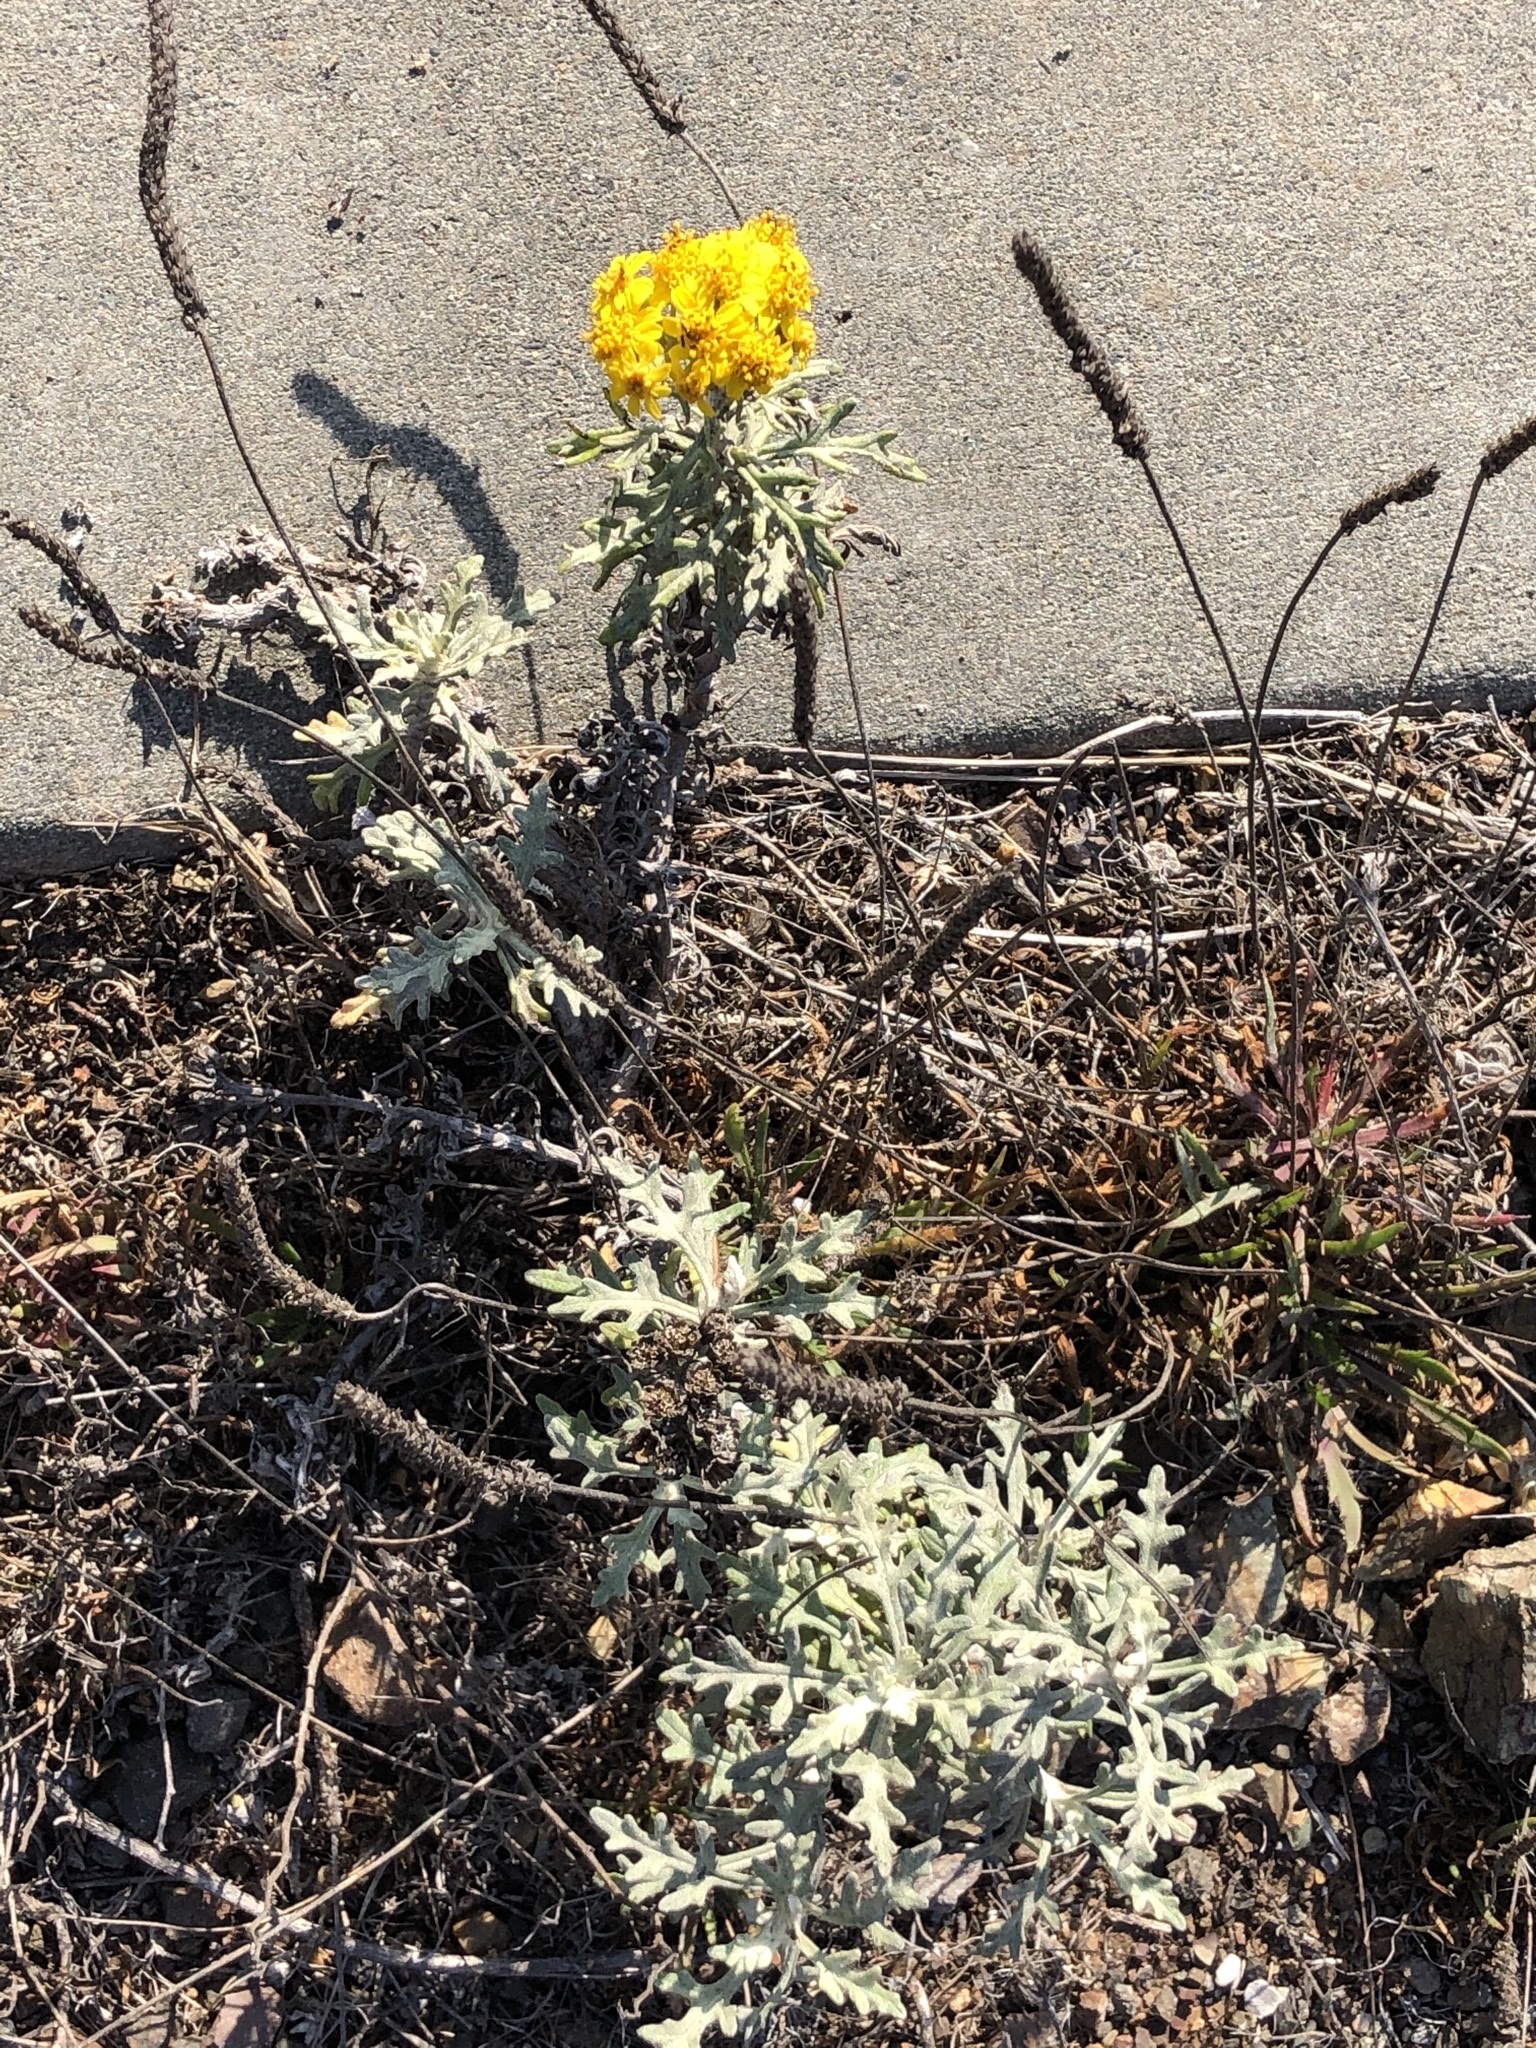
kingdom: Plantae
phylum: Tracheophyta
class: Magnoliopsida
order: Asterales
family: Asteraceae
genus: Eriophyllum
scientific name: Eriophyllum staechadifolium
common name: Lizardtail
